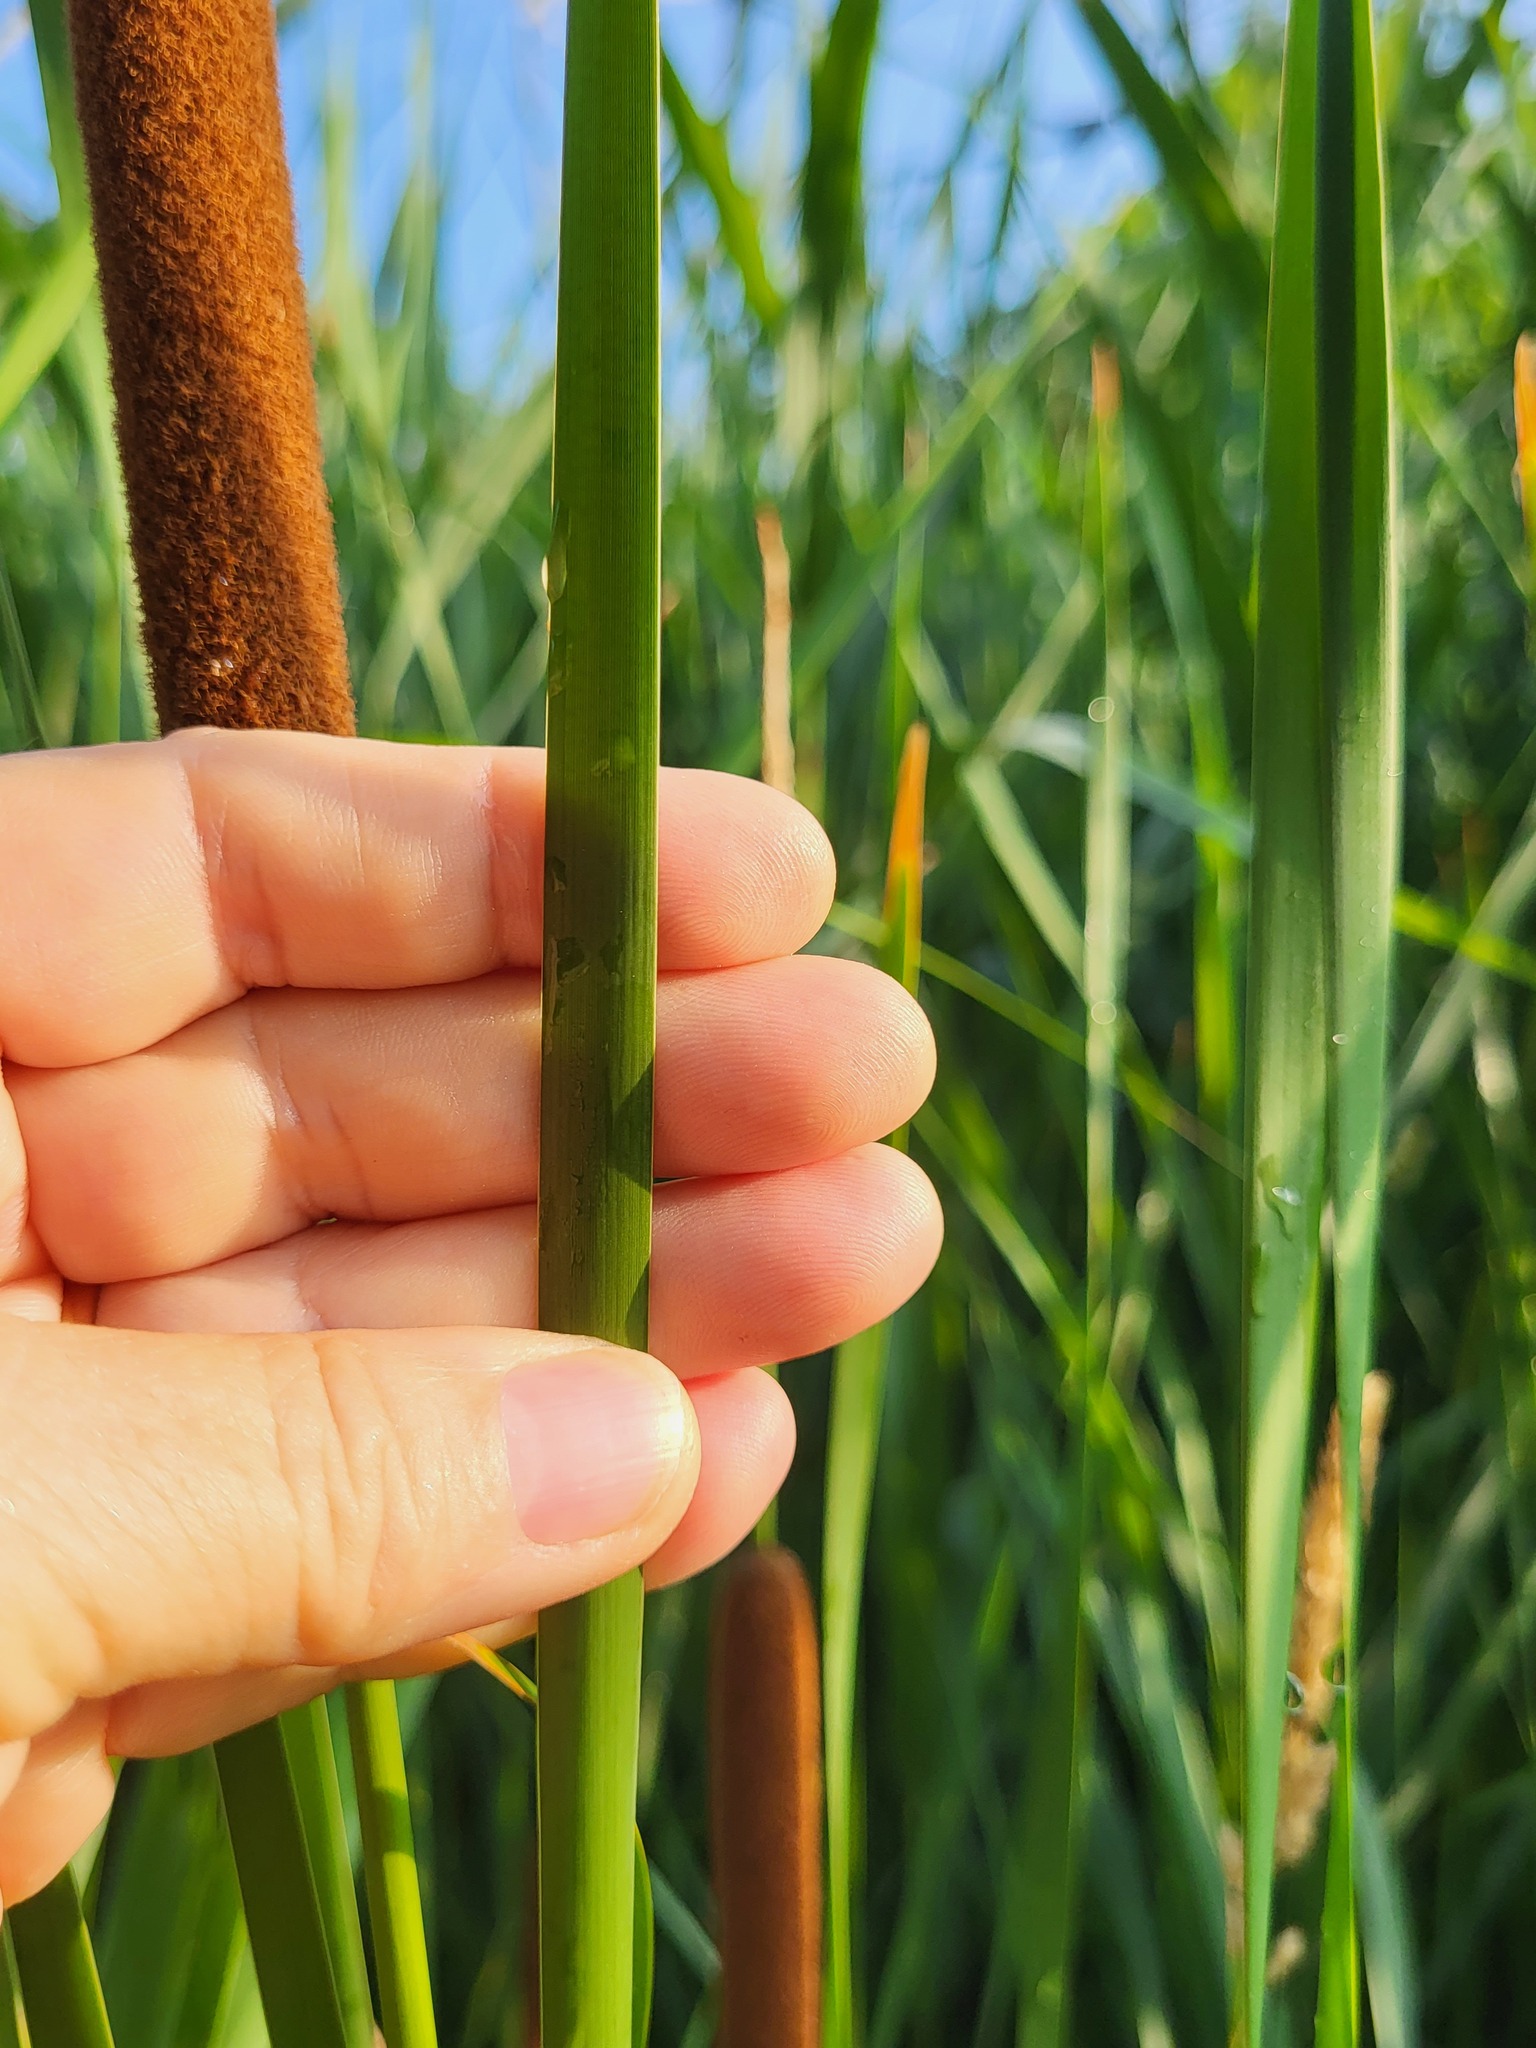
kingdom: Plantae
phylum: Tracheophyta
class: Liliopsida
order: Poales
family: Typhaceae
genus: Typha
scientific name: Typha angustifolia
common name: Lesser bulrush
